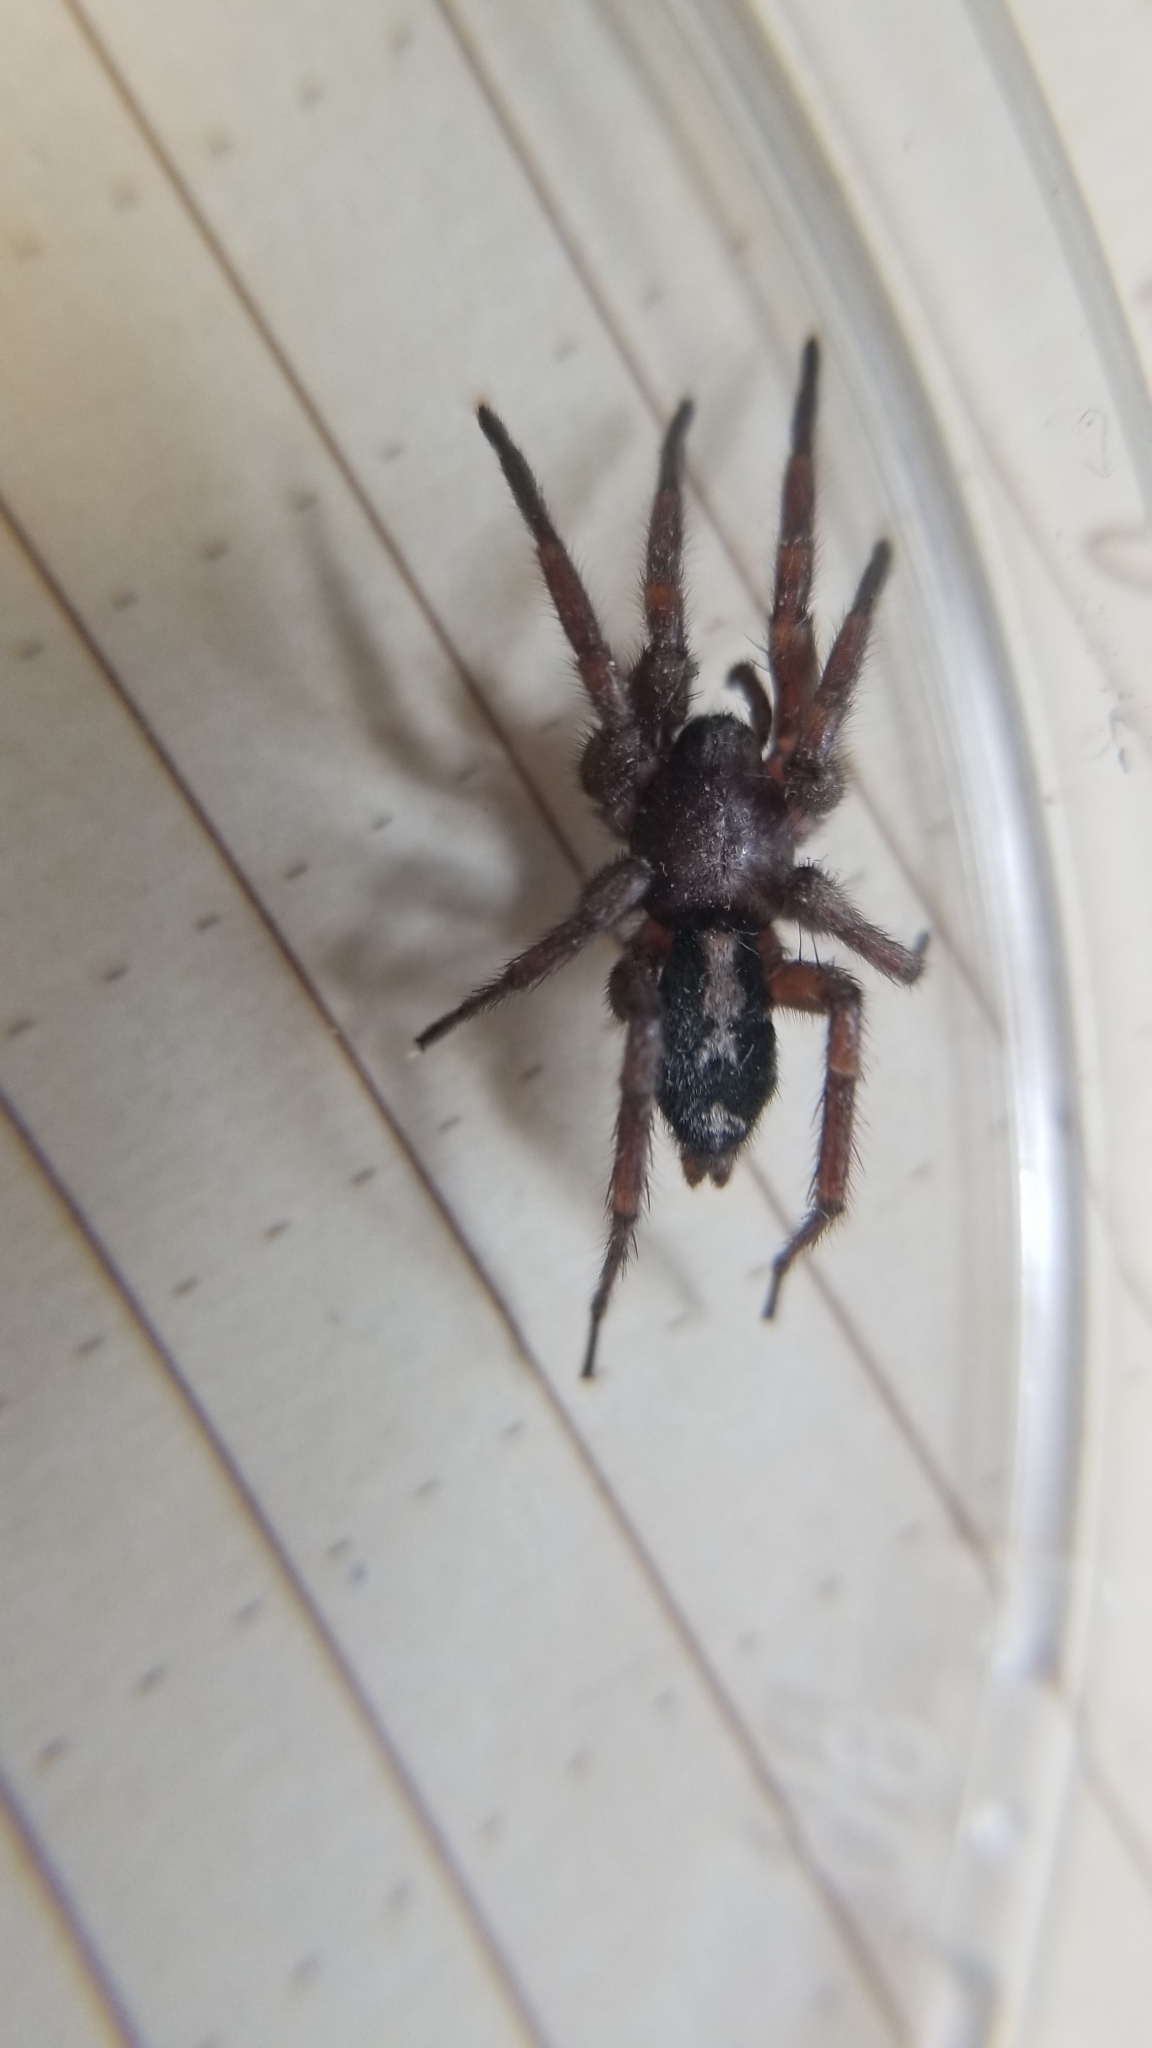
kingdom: Animalia
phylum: Arthropoda
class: Arachnida
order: Araneae
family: Gnaphosidae
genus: Herpyllus
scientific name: Herpyllus ecclesiasticus
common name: Eastern parson spider
